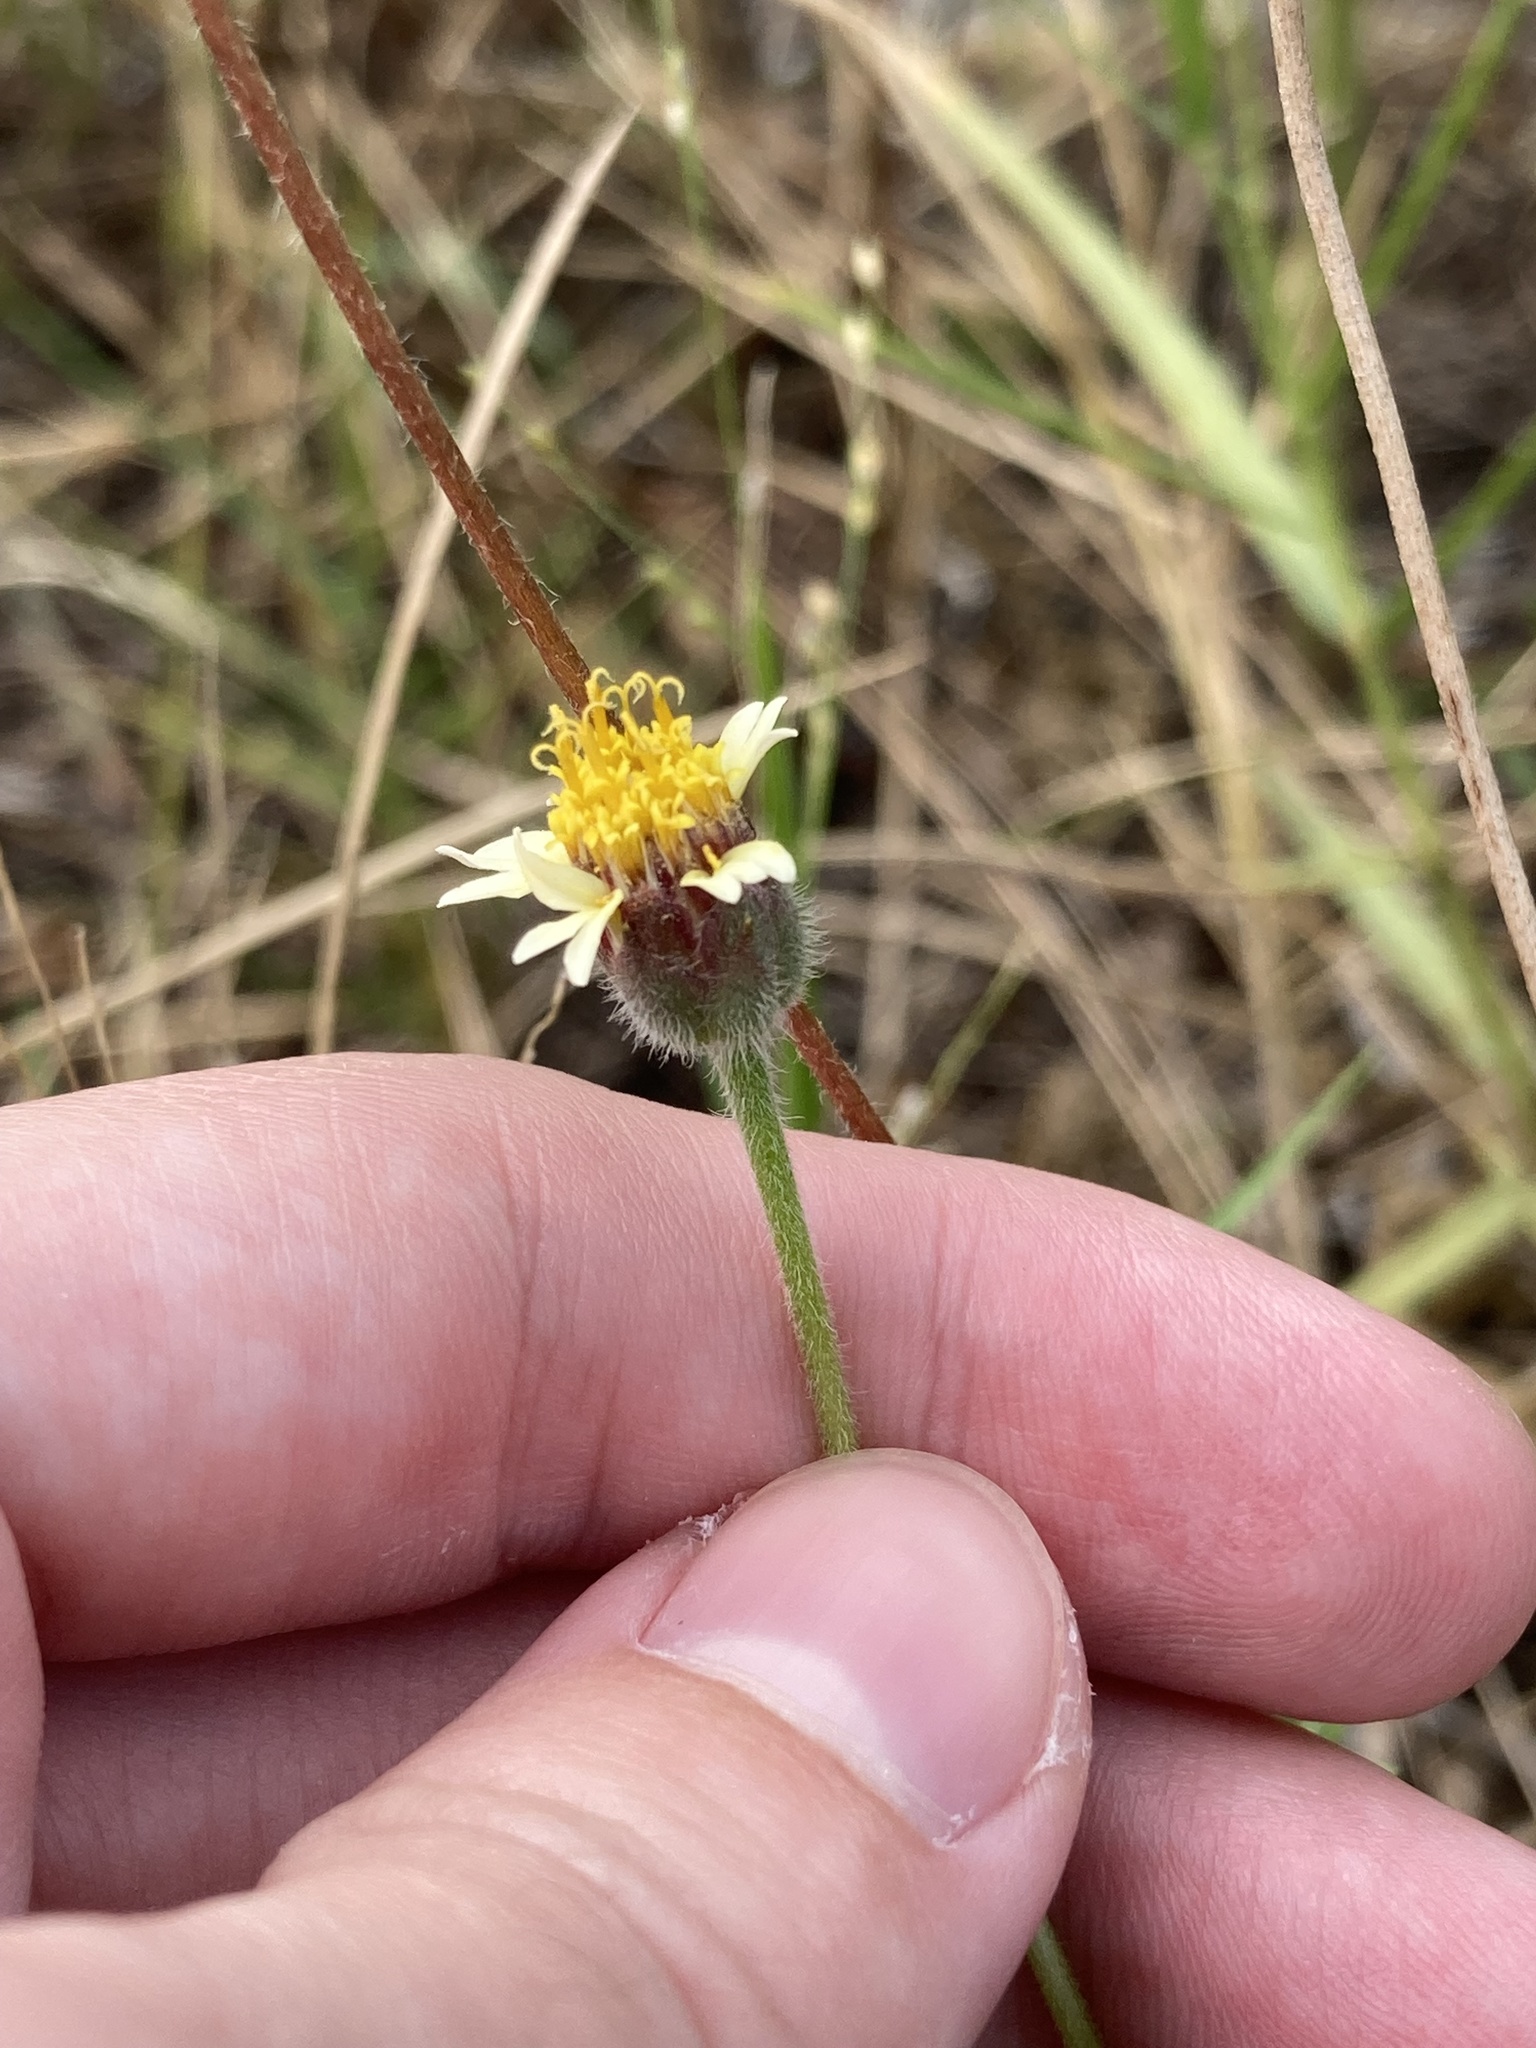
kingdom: Plantae
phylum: Tracheophyta
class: Magnoliopsida
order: Asterales
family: Asteraceae
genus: Tridax
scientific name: Tridax procumbens
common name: Coatbuttons
